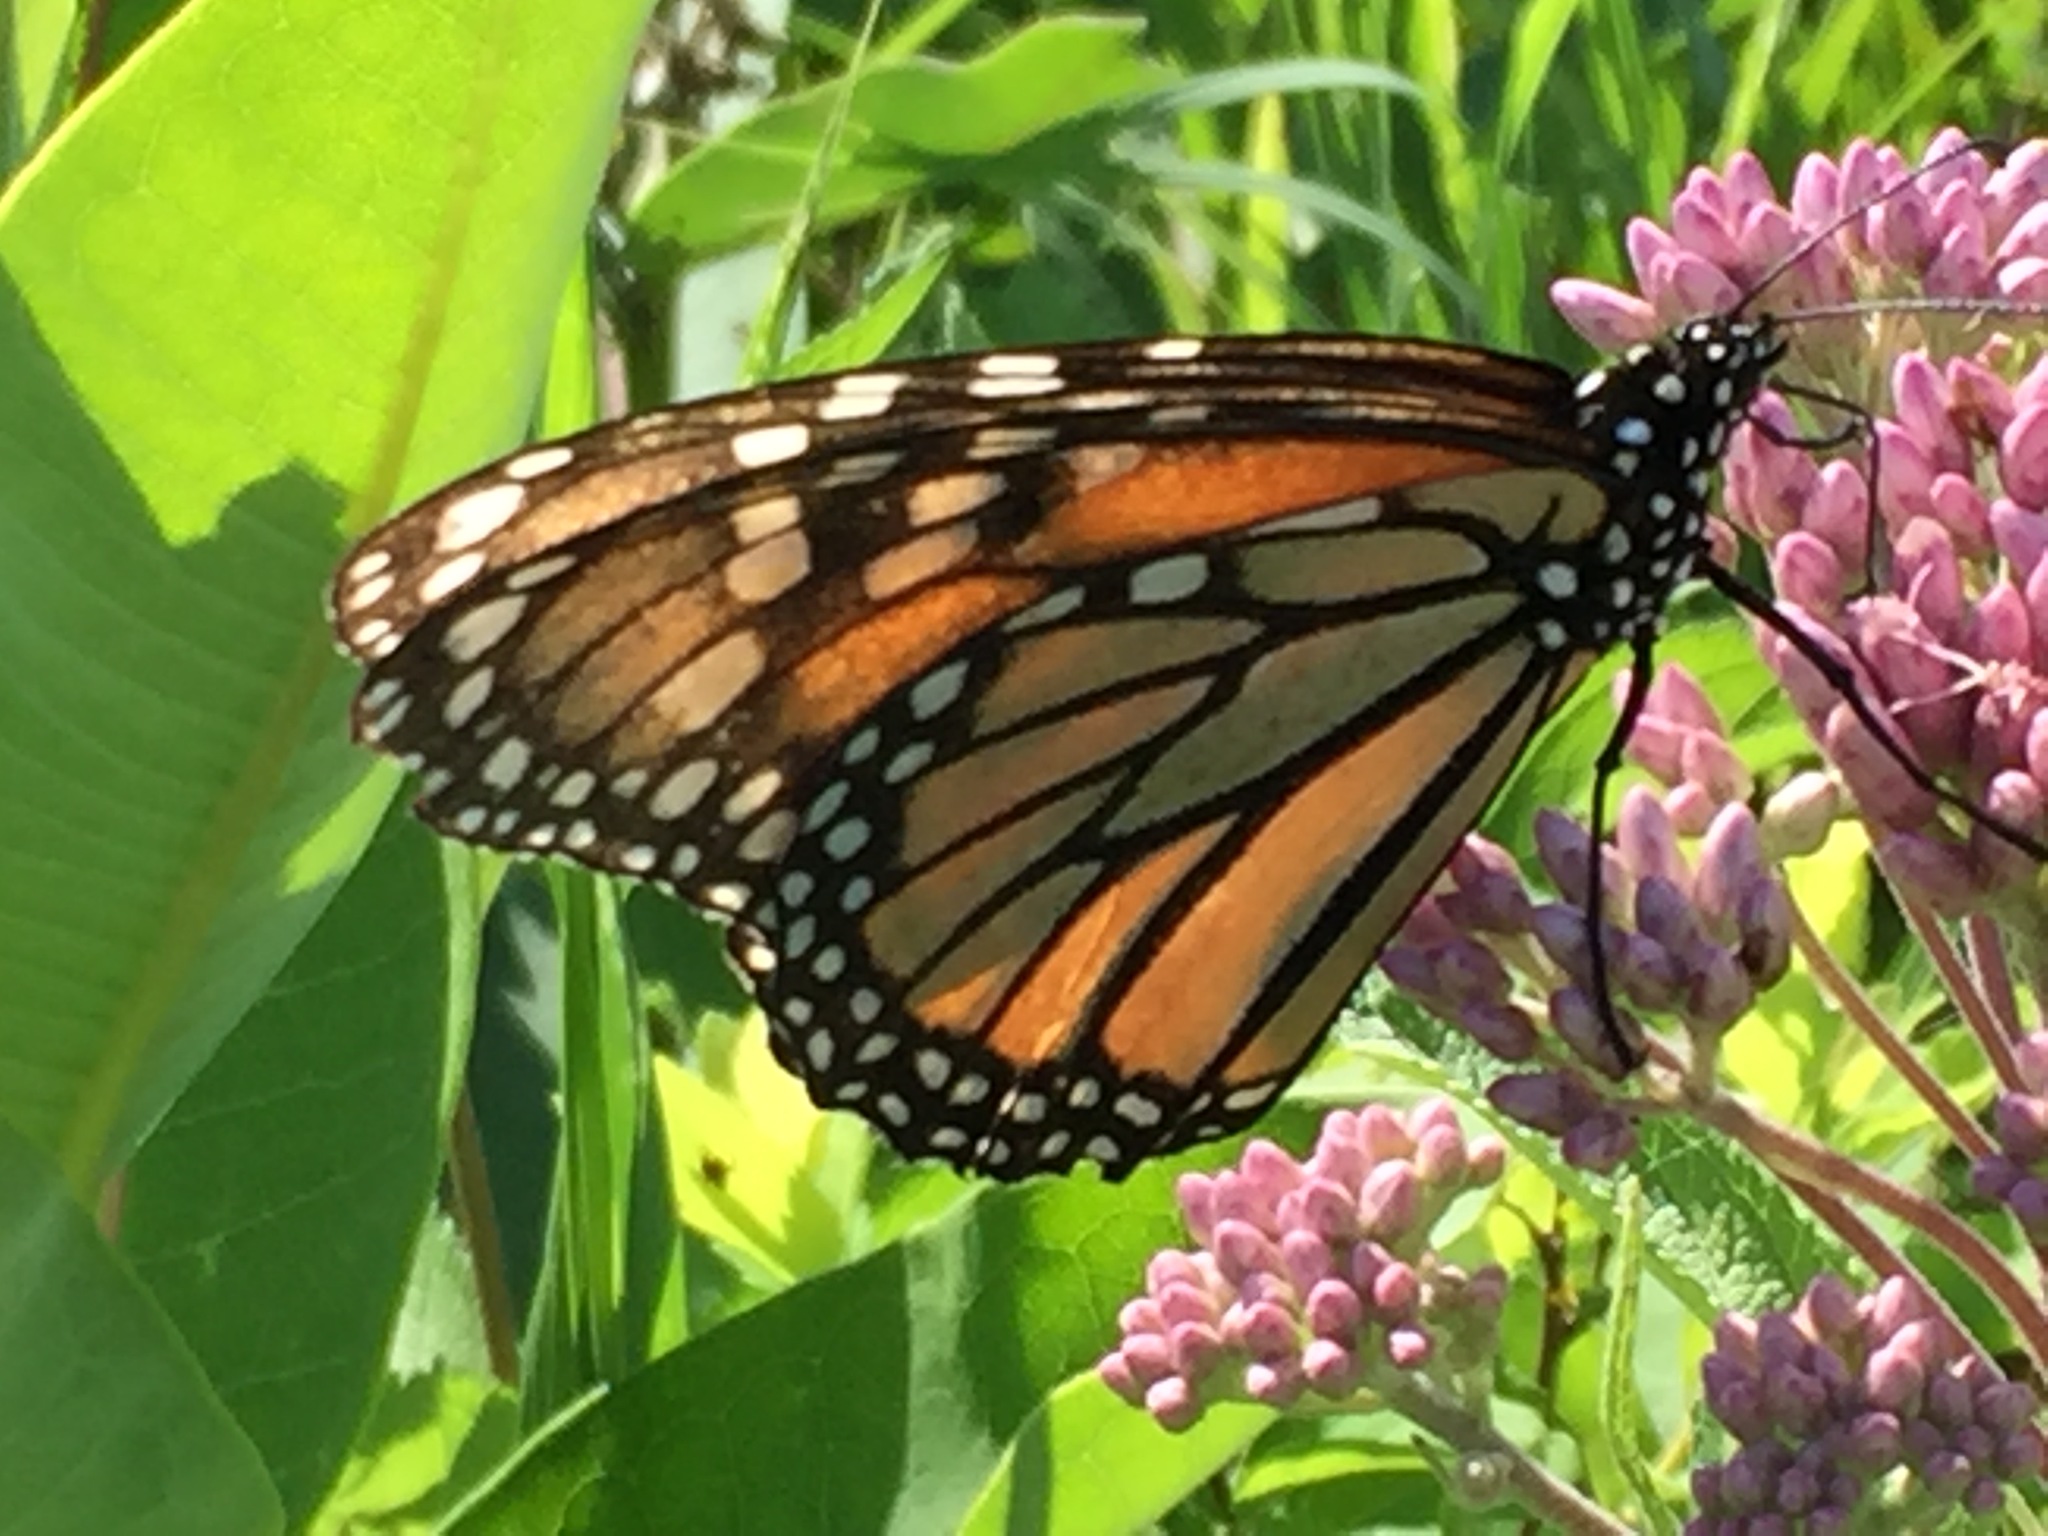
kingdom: Animalia
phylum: Arthropoda
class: Insecta
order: Lepidoptera
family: Nymphalidae
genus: Danaus
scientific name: Danaus plexippus
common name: Monarch
